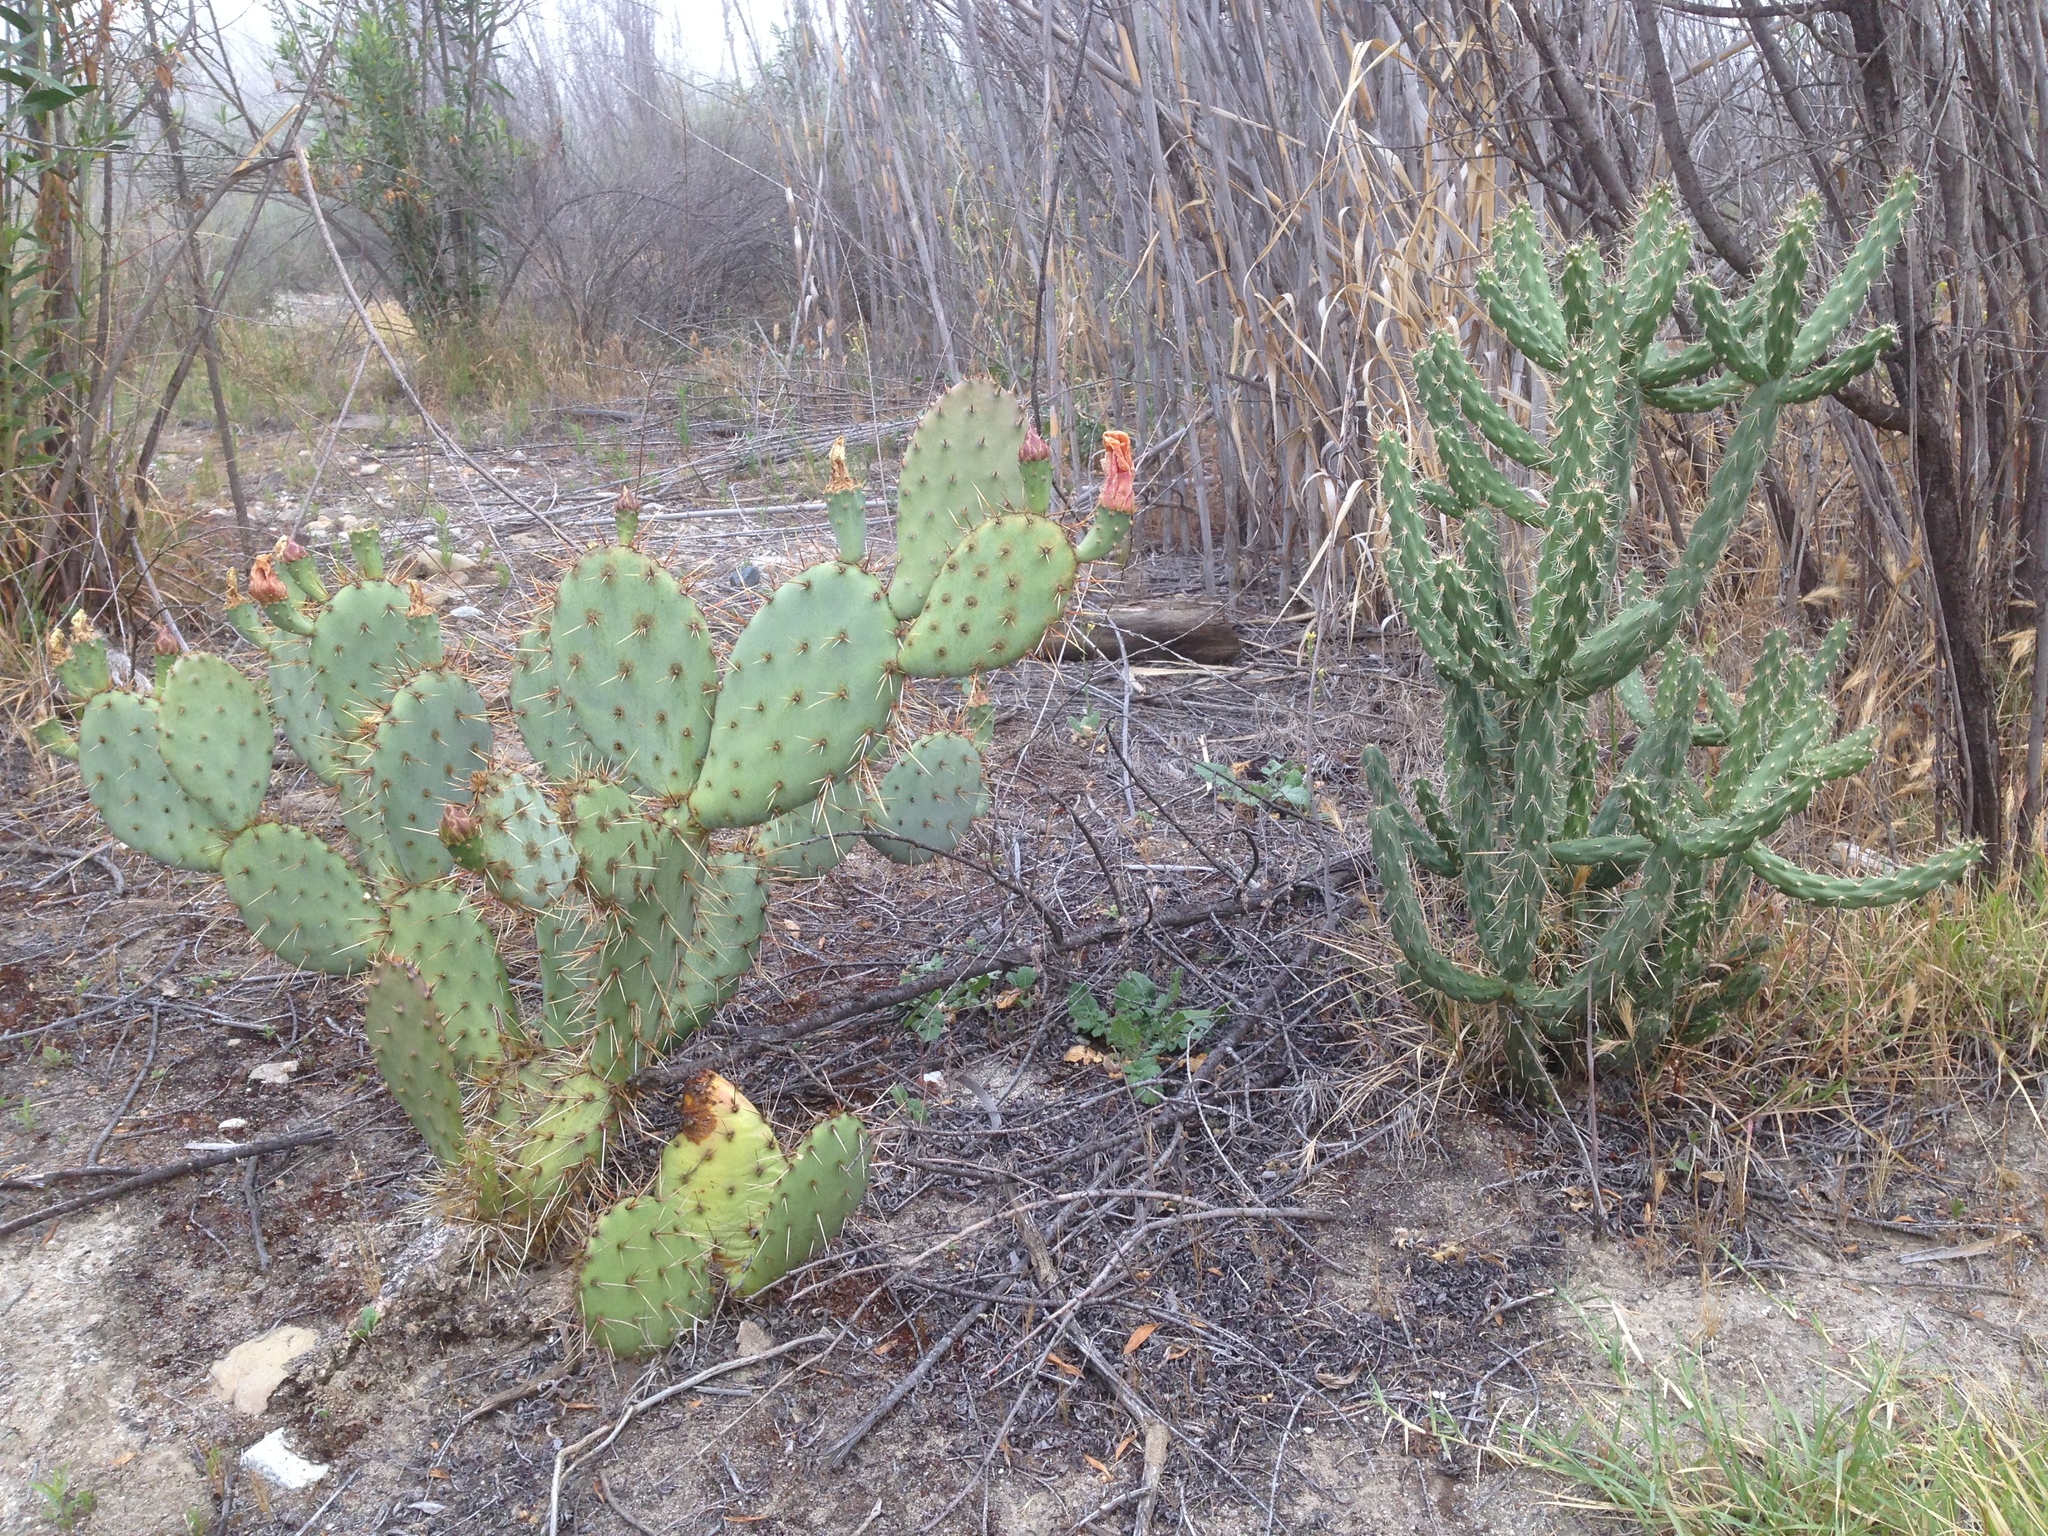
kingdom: Plantae
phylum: Tracheophyta
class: Magnoliopsida
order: Caryophyllales
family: Cactaceae
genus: Cylindropuntia
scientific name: Cylindropuntia bernardina
